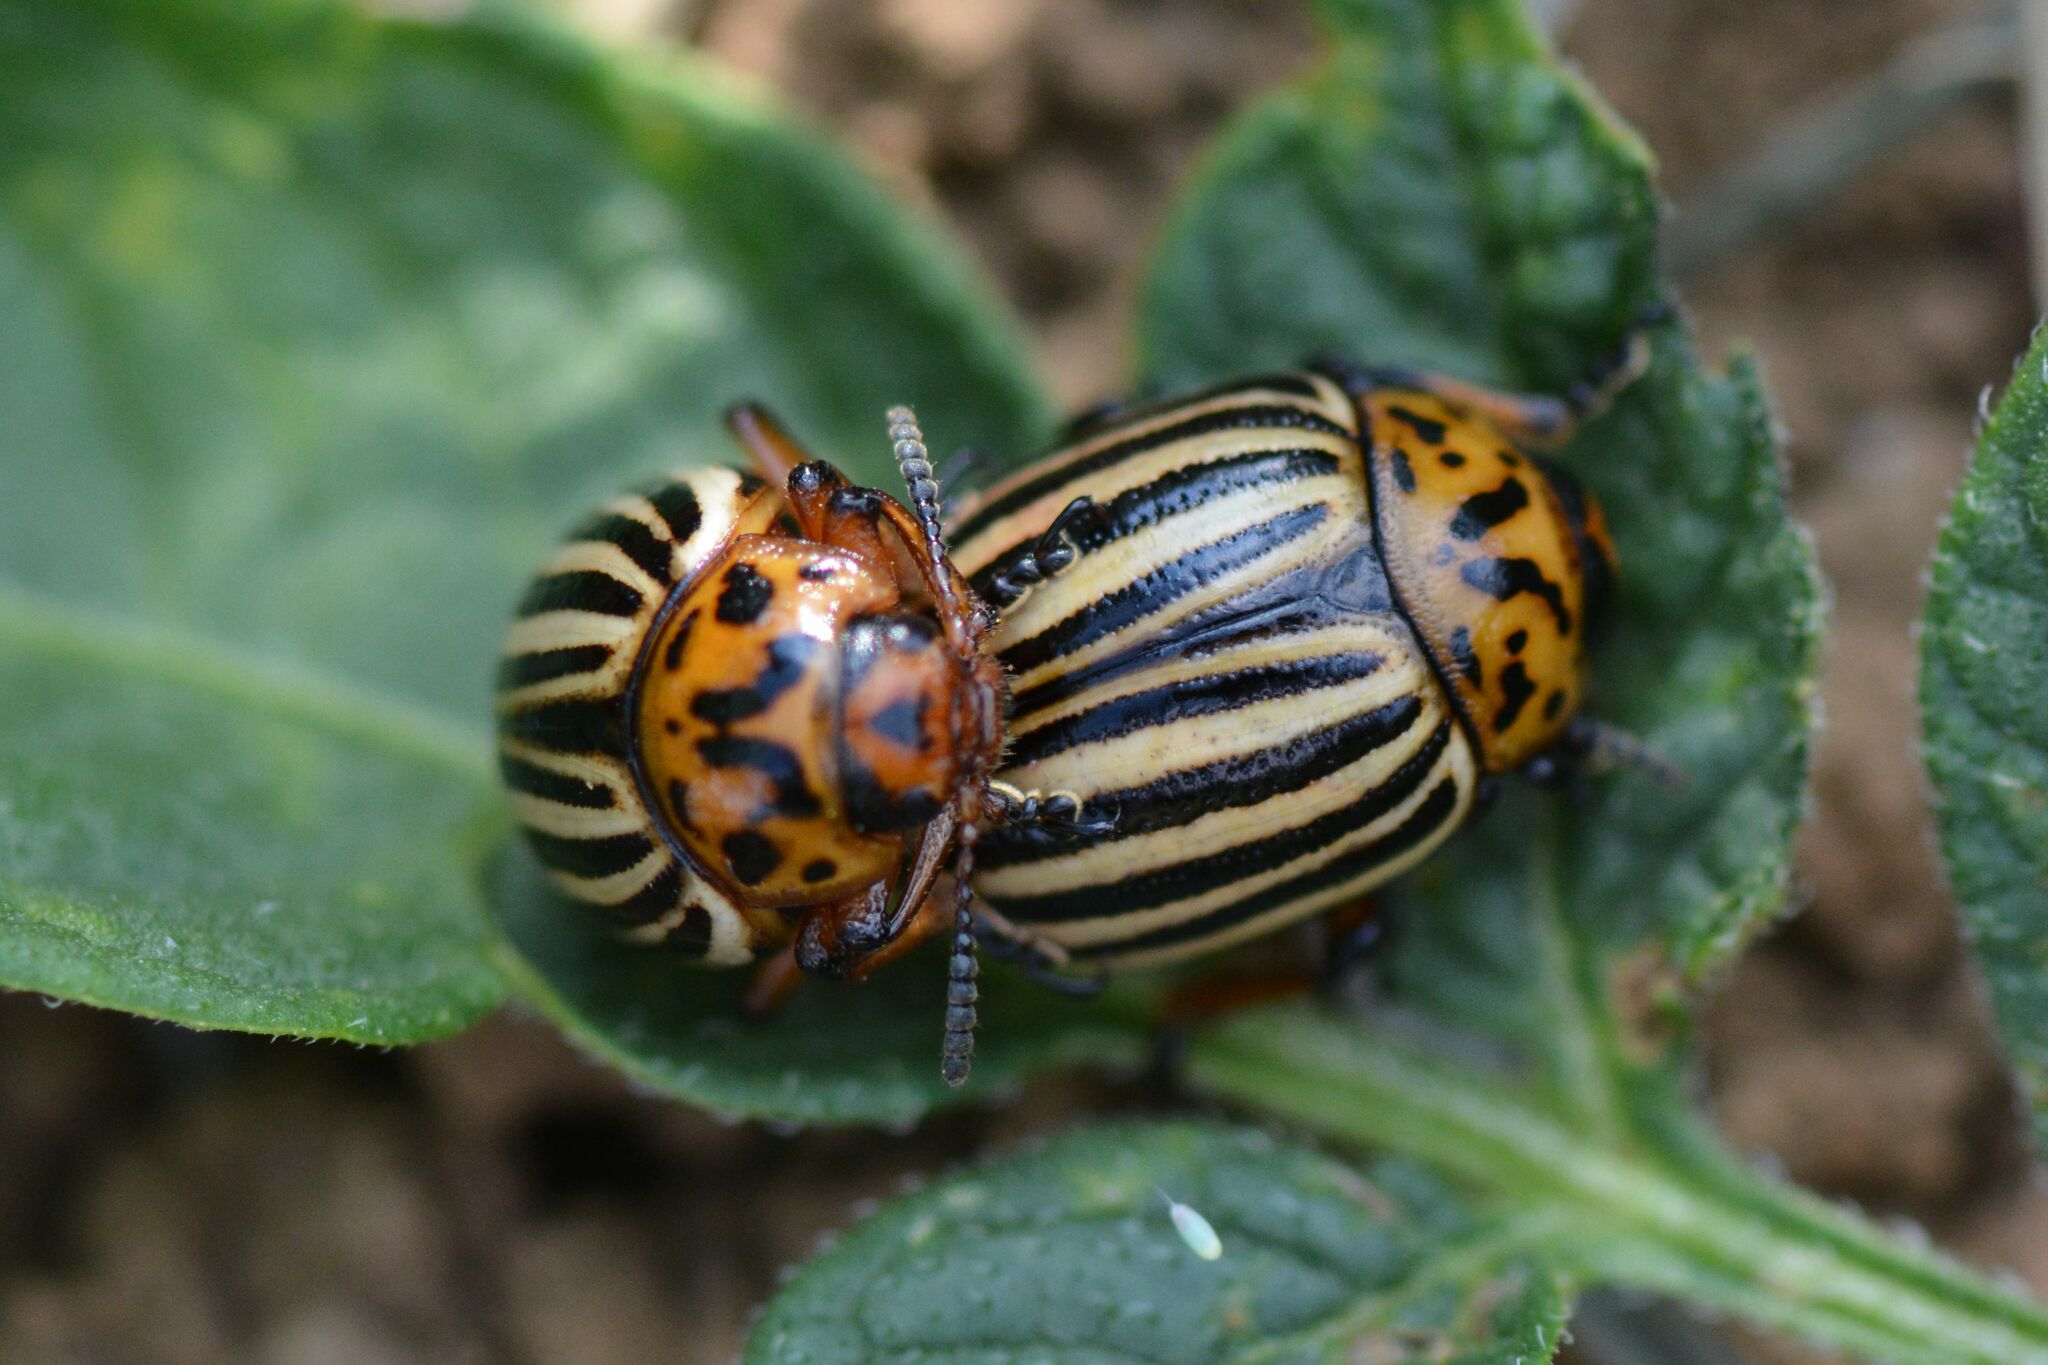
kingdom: Animalia
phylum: Arthropoda
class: Insecta
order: Coleoptera
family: Chrysomelidae
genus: Leptinotarsa
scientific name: Leptinotarsa decemlineata
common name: Colorado potato beetle
